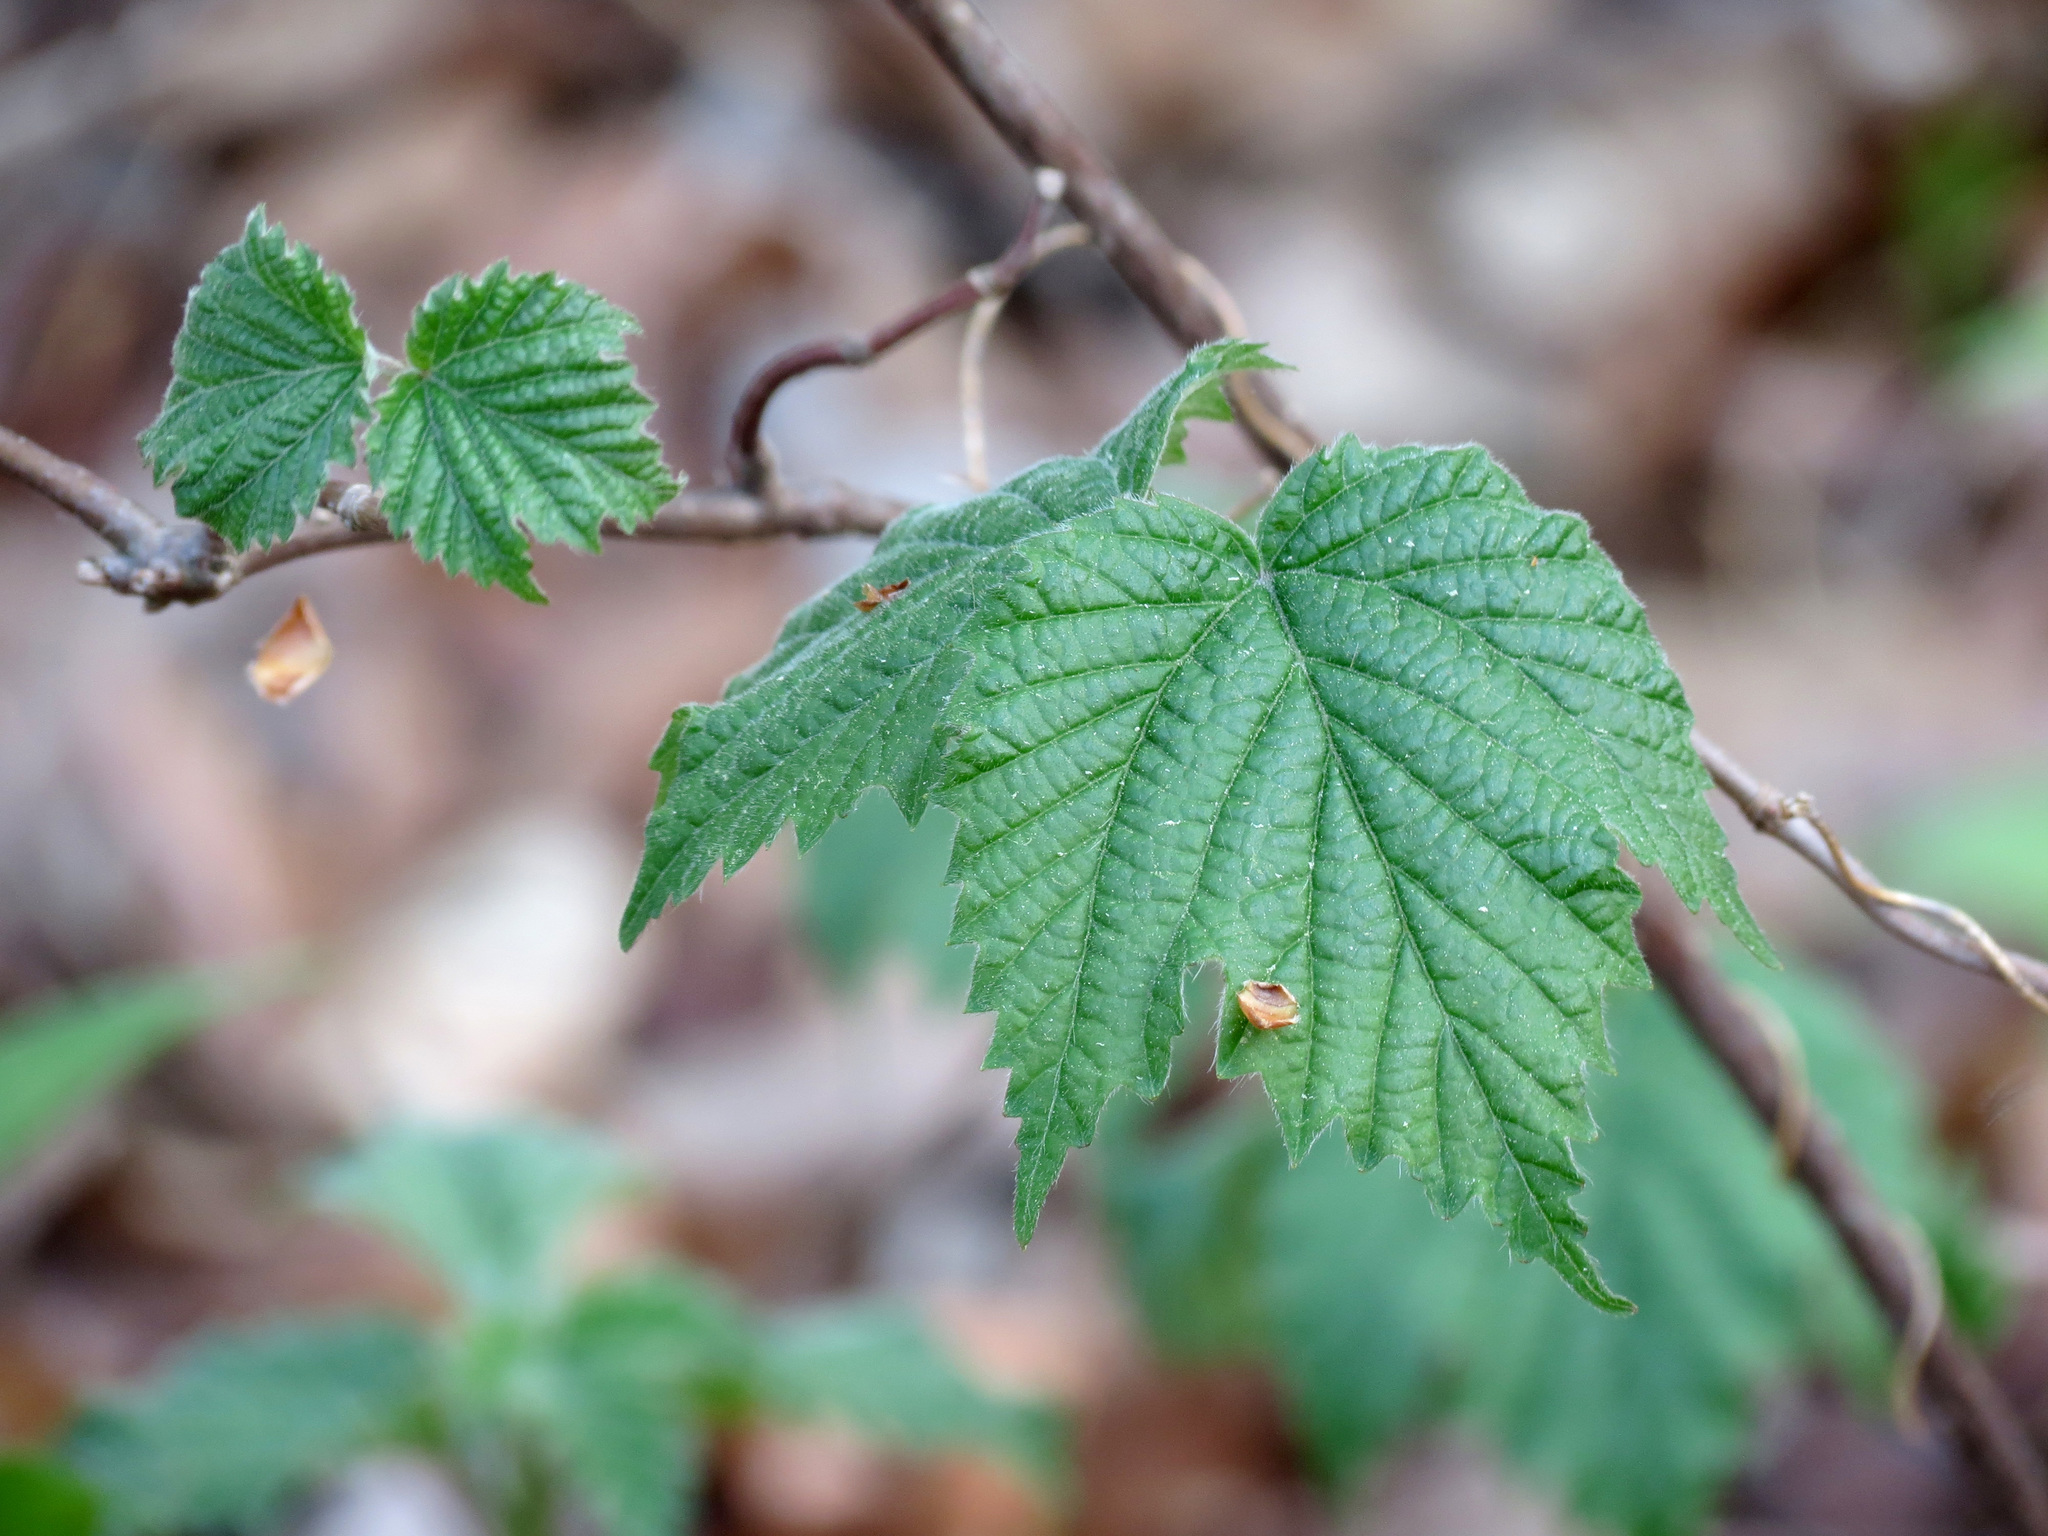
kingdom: Plantae
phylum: Tracheophyta
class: Magnoliopsida
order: Dipsacales
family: Viburnaceae
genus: Viburnum
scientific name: Viburnum acerifolium
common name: Dockmackie
